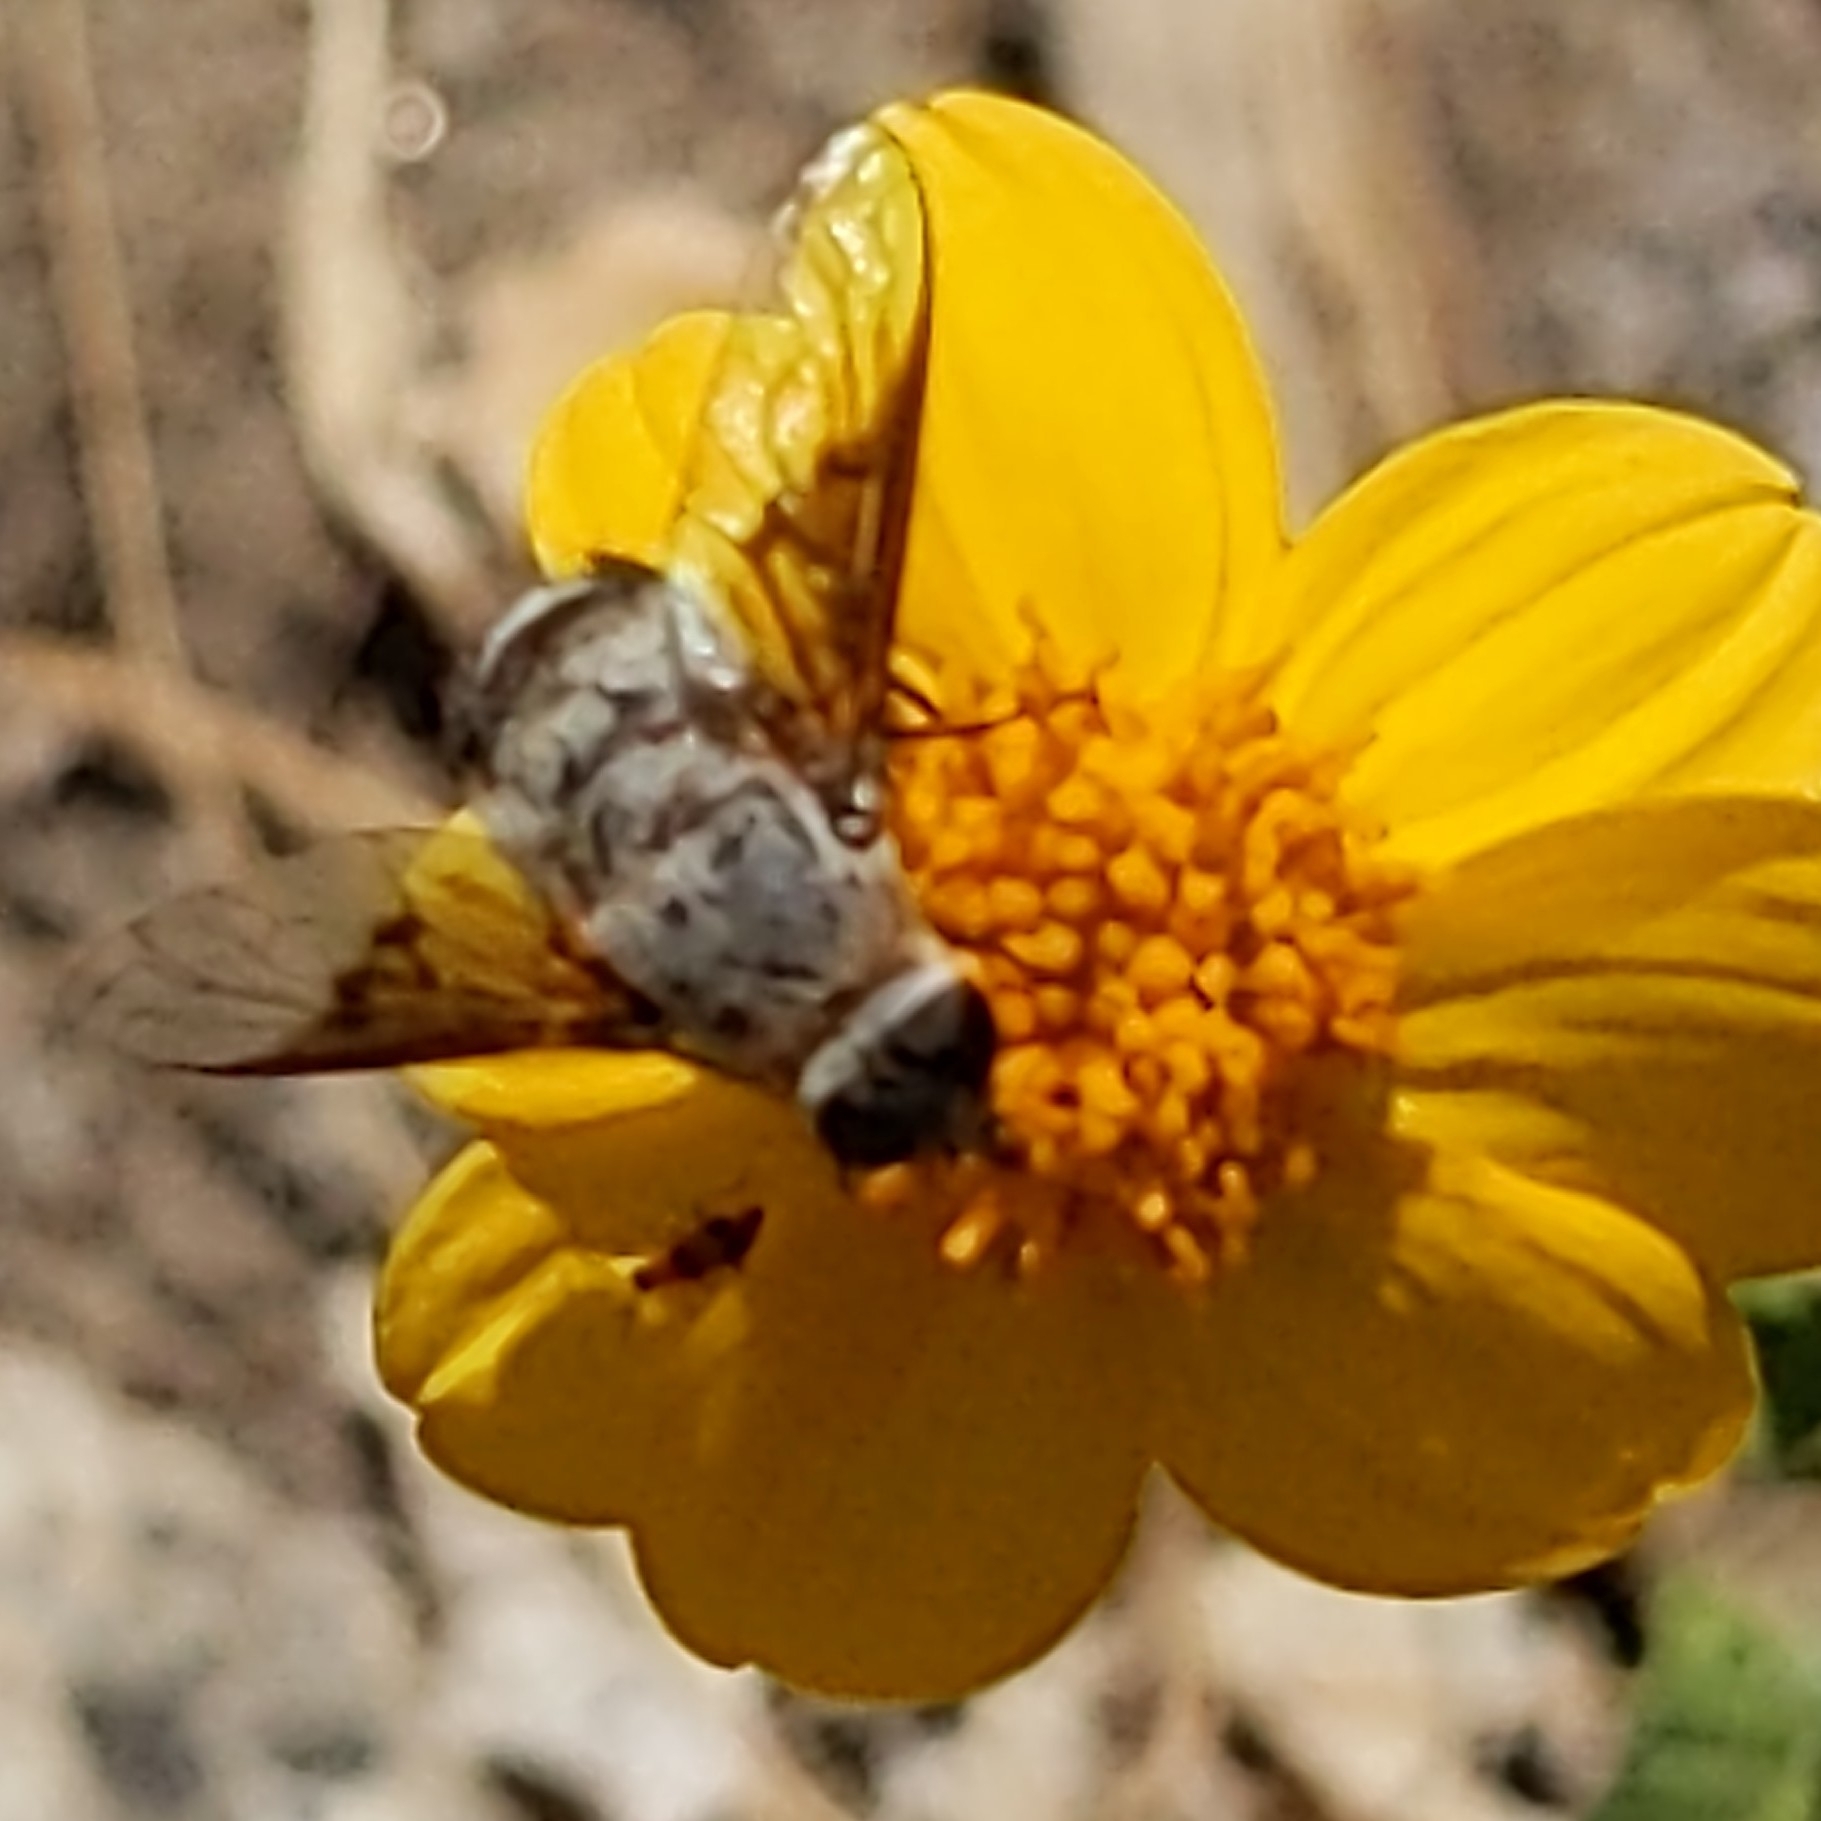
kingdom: Plantae
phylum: Tracheophyta
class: Magnoliopsida
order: Asterales
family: Asteraceae
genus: Bahiopsis
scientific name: Bahiopsis parishii
